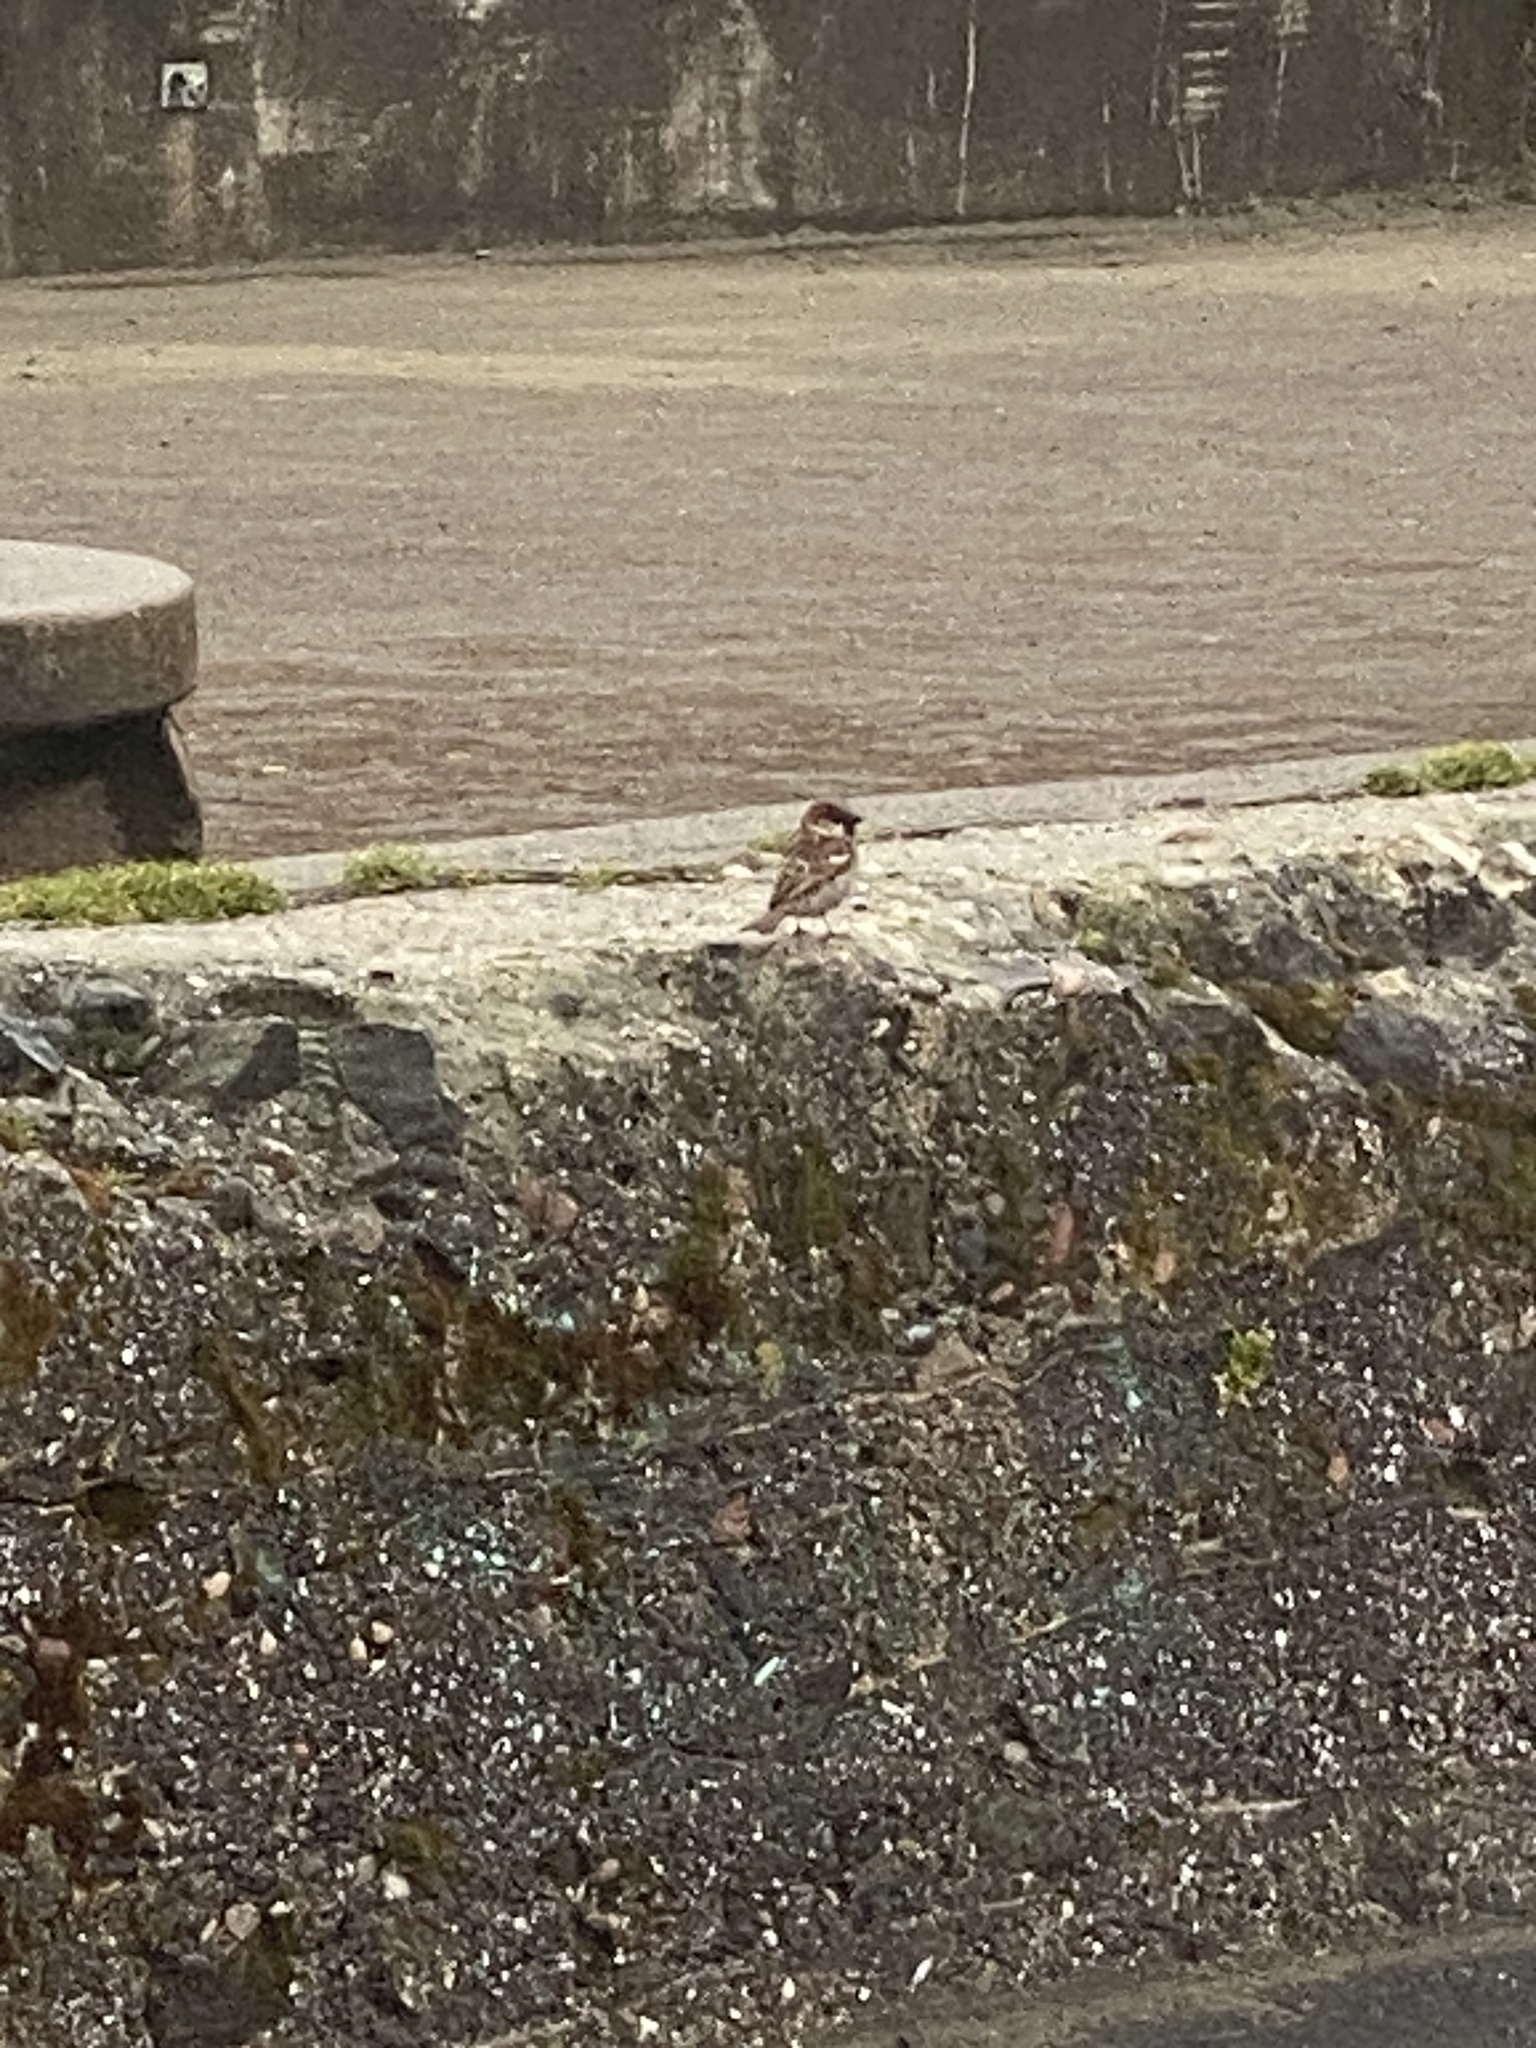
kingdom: Animalia
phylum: Chordata
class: Aves
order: Passeriformes
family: Passeridae
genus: Passer
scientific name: Passer domesticus
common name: House sparrow
